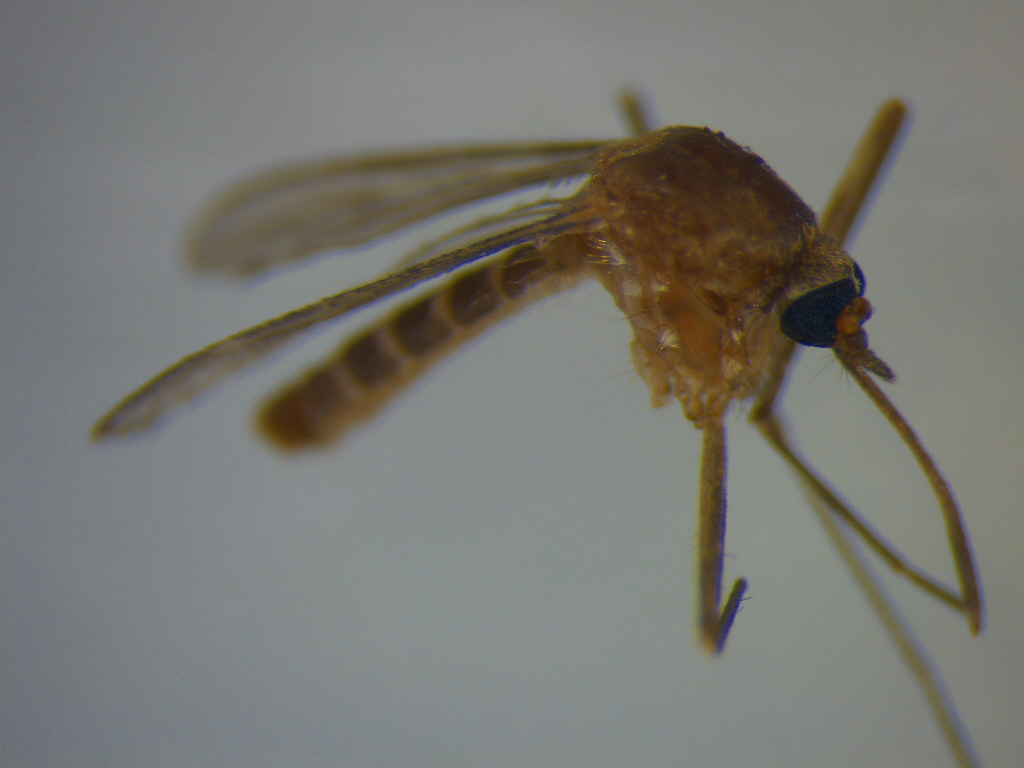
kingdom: Animalia
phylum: Arthropoda
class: Insecta
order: Diptera
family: Culicidae
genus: Culex
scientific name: Culex quinquefasciatus
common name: Southern house mosquito
